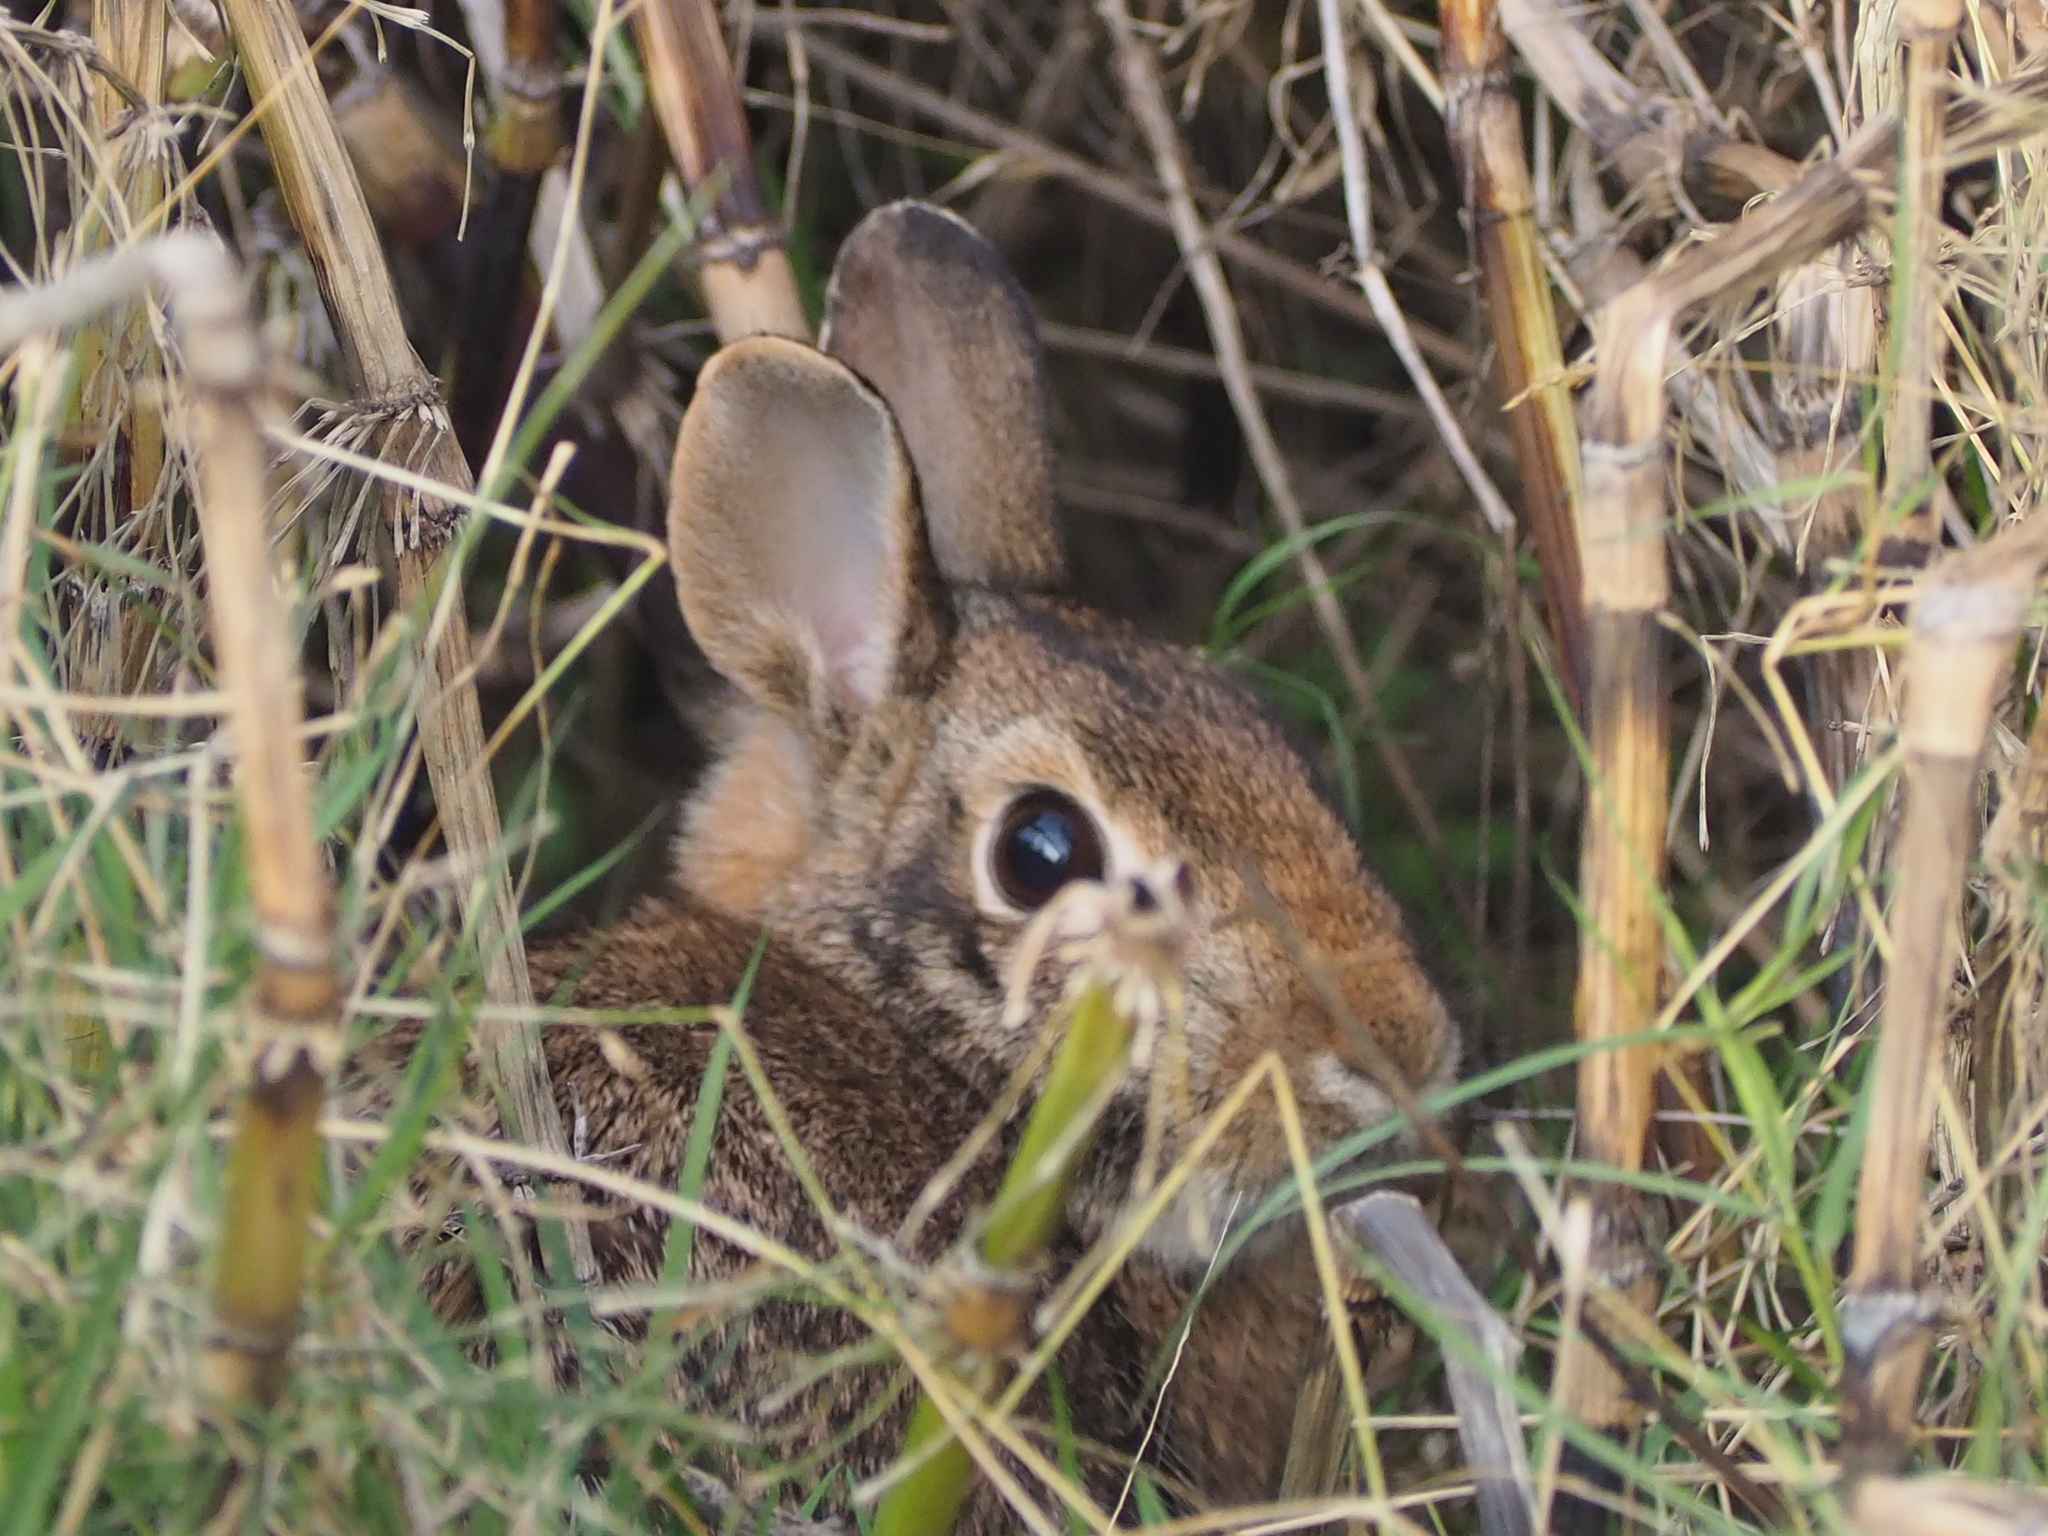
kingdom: Animalia
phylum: Chordata
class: Mammalia
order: Lagomorpha
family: Leporidae
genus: Sylvilagus
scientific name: Sylvilagus floridanus
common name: Eastern cottontail
